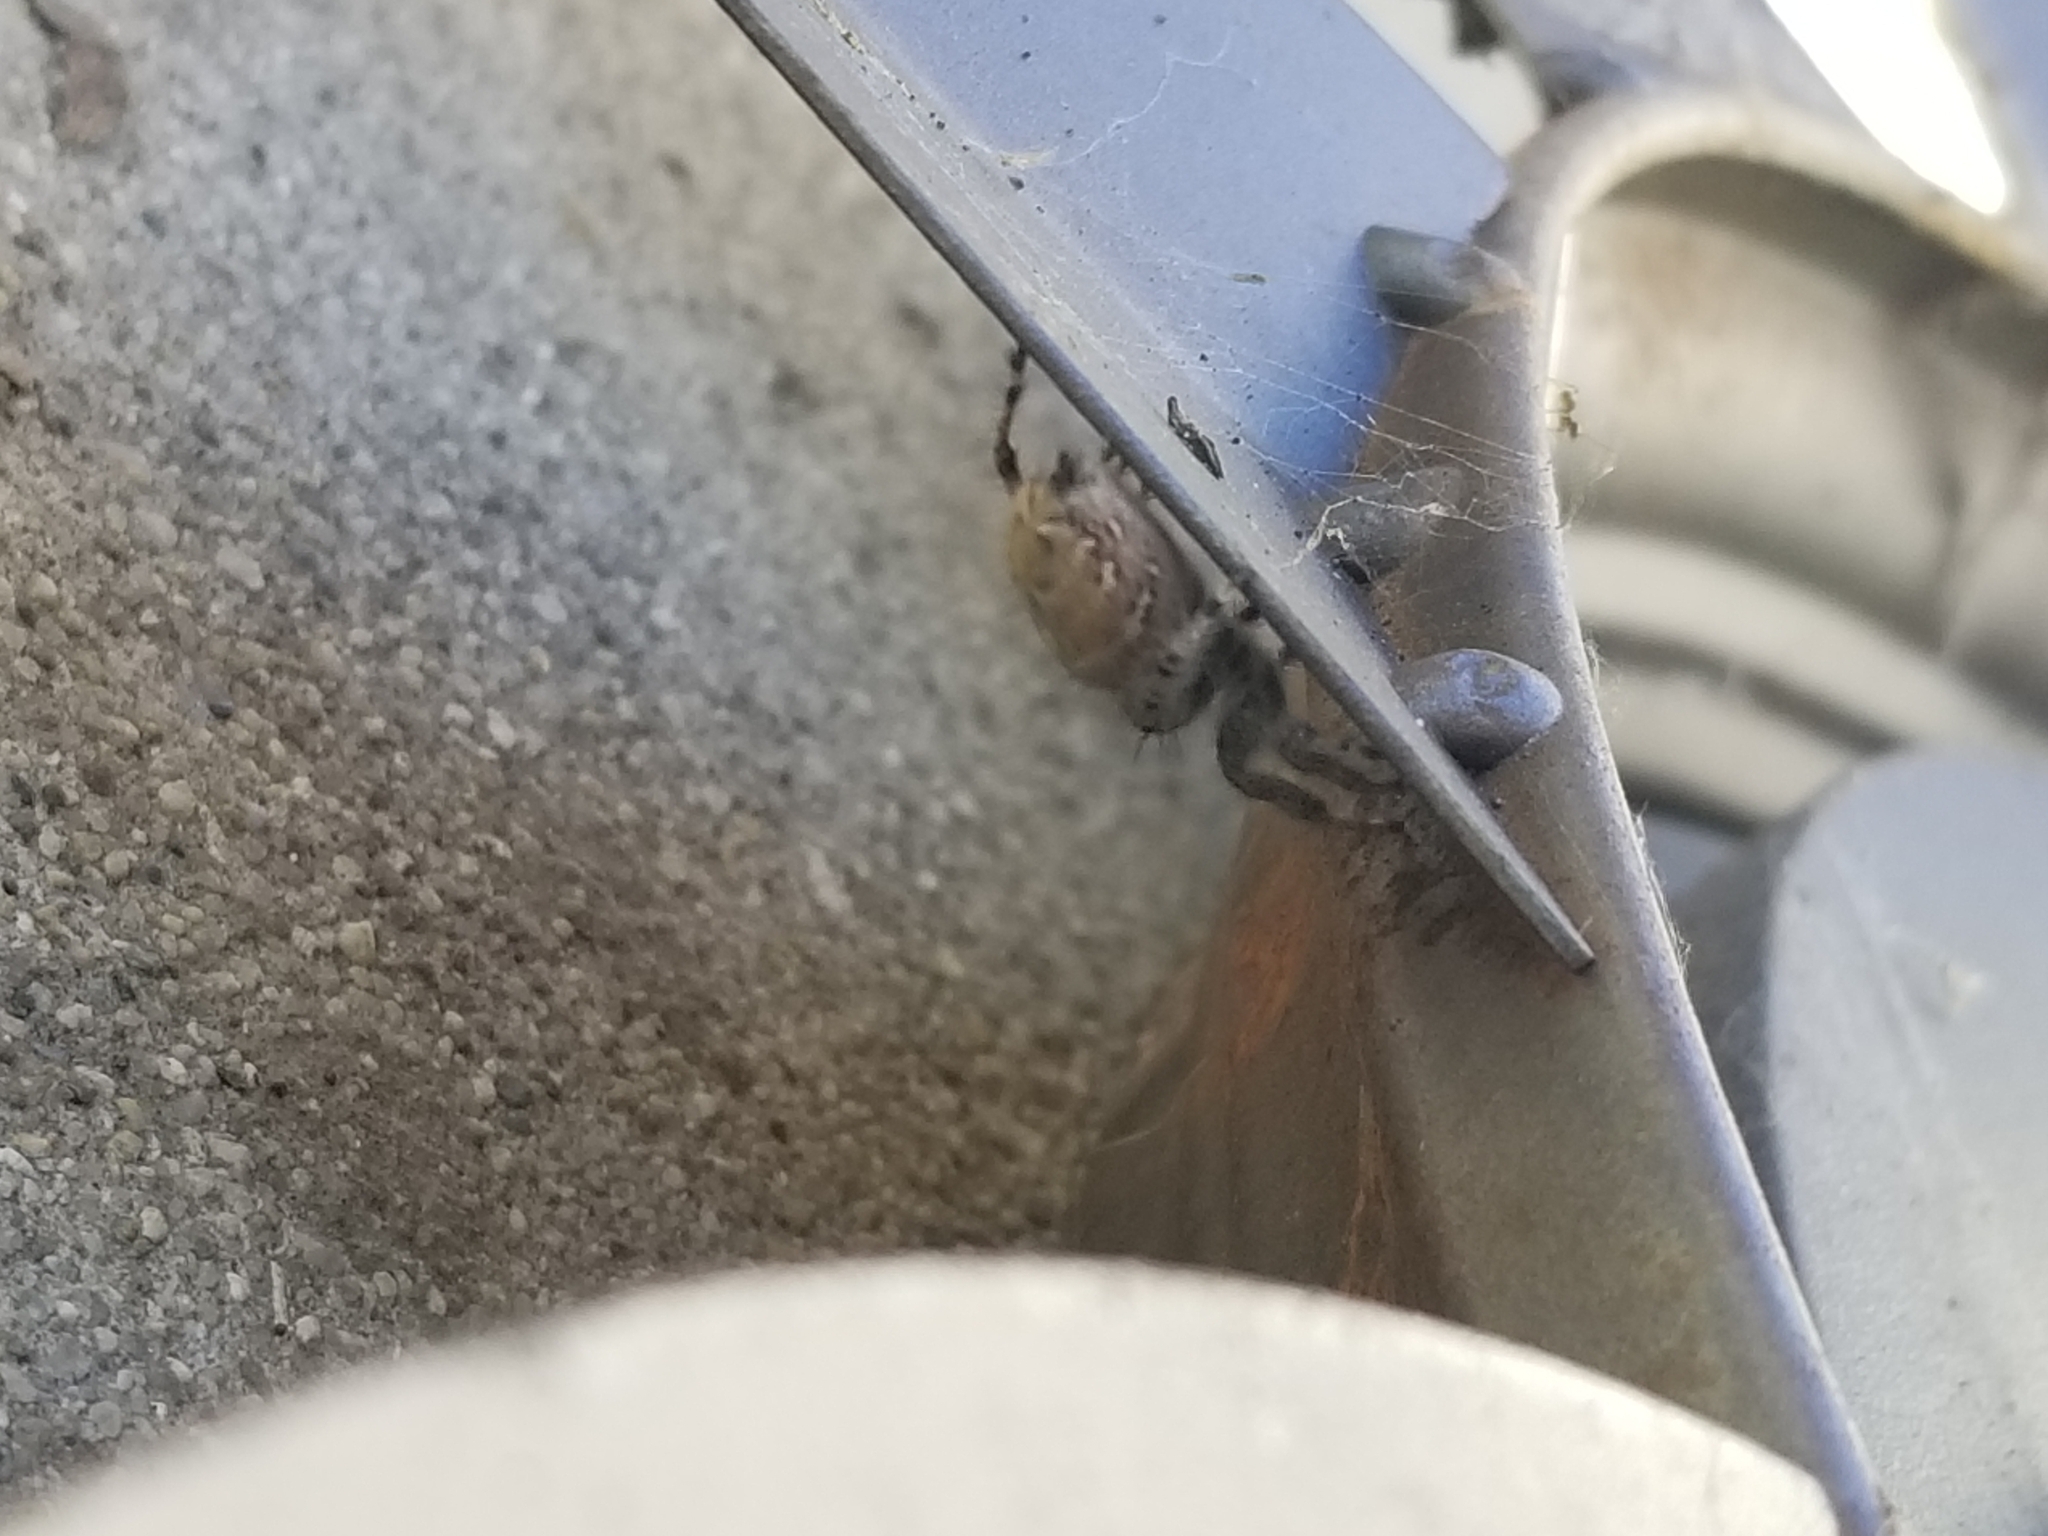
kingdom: Animalia
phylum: Arthropoda
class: Arachnida
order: Araneae
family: Salticidae
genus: Phidippus
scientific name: Phidippus adumbratus
